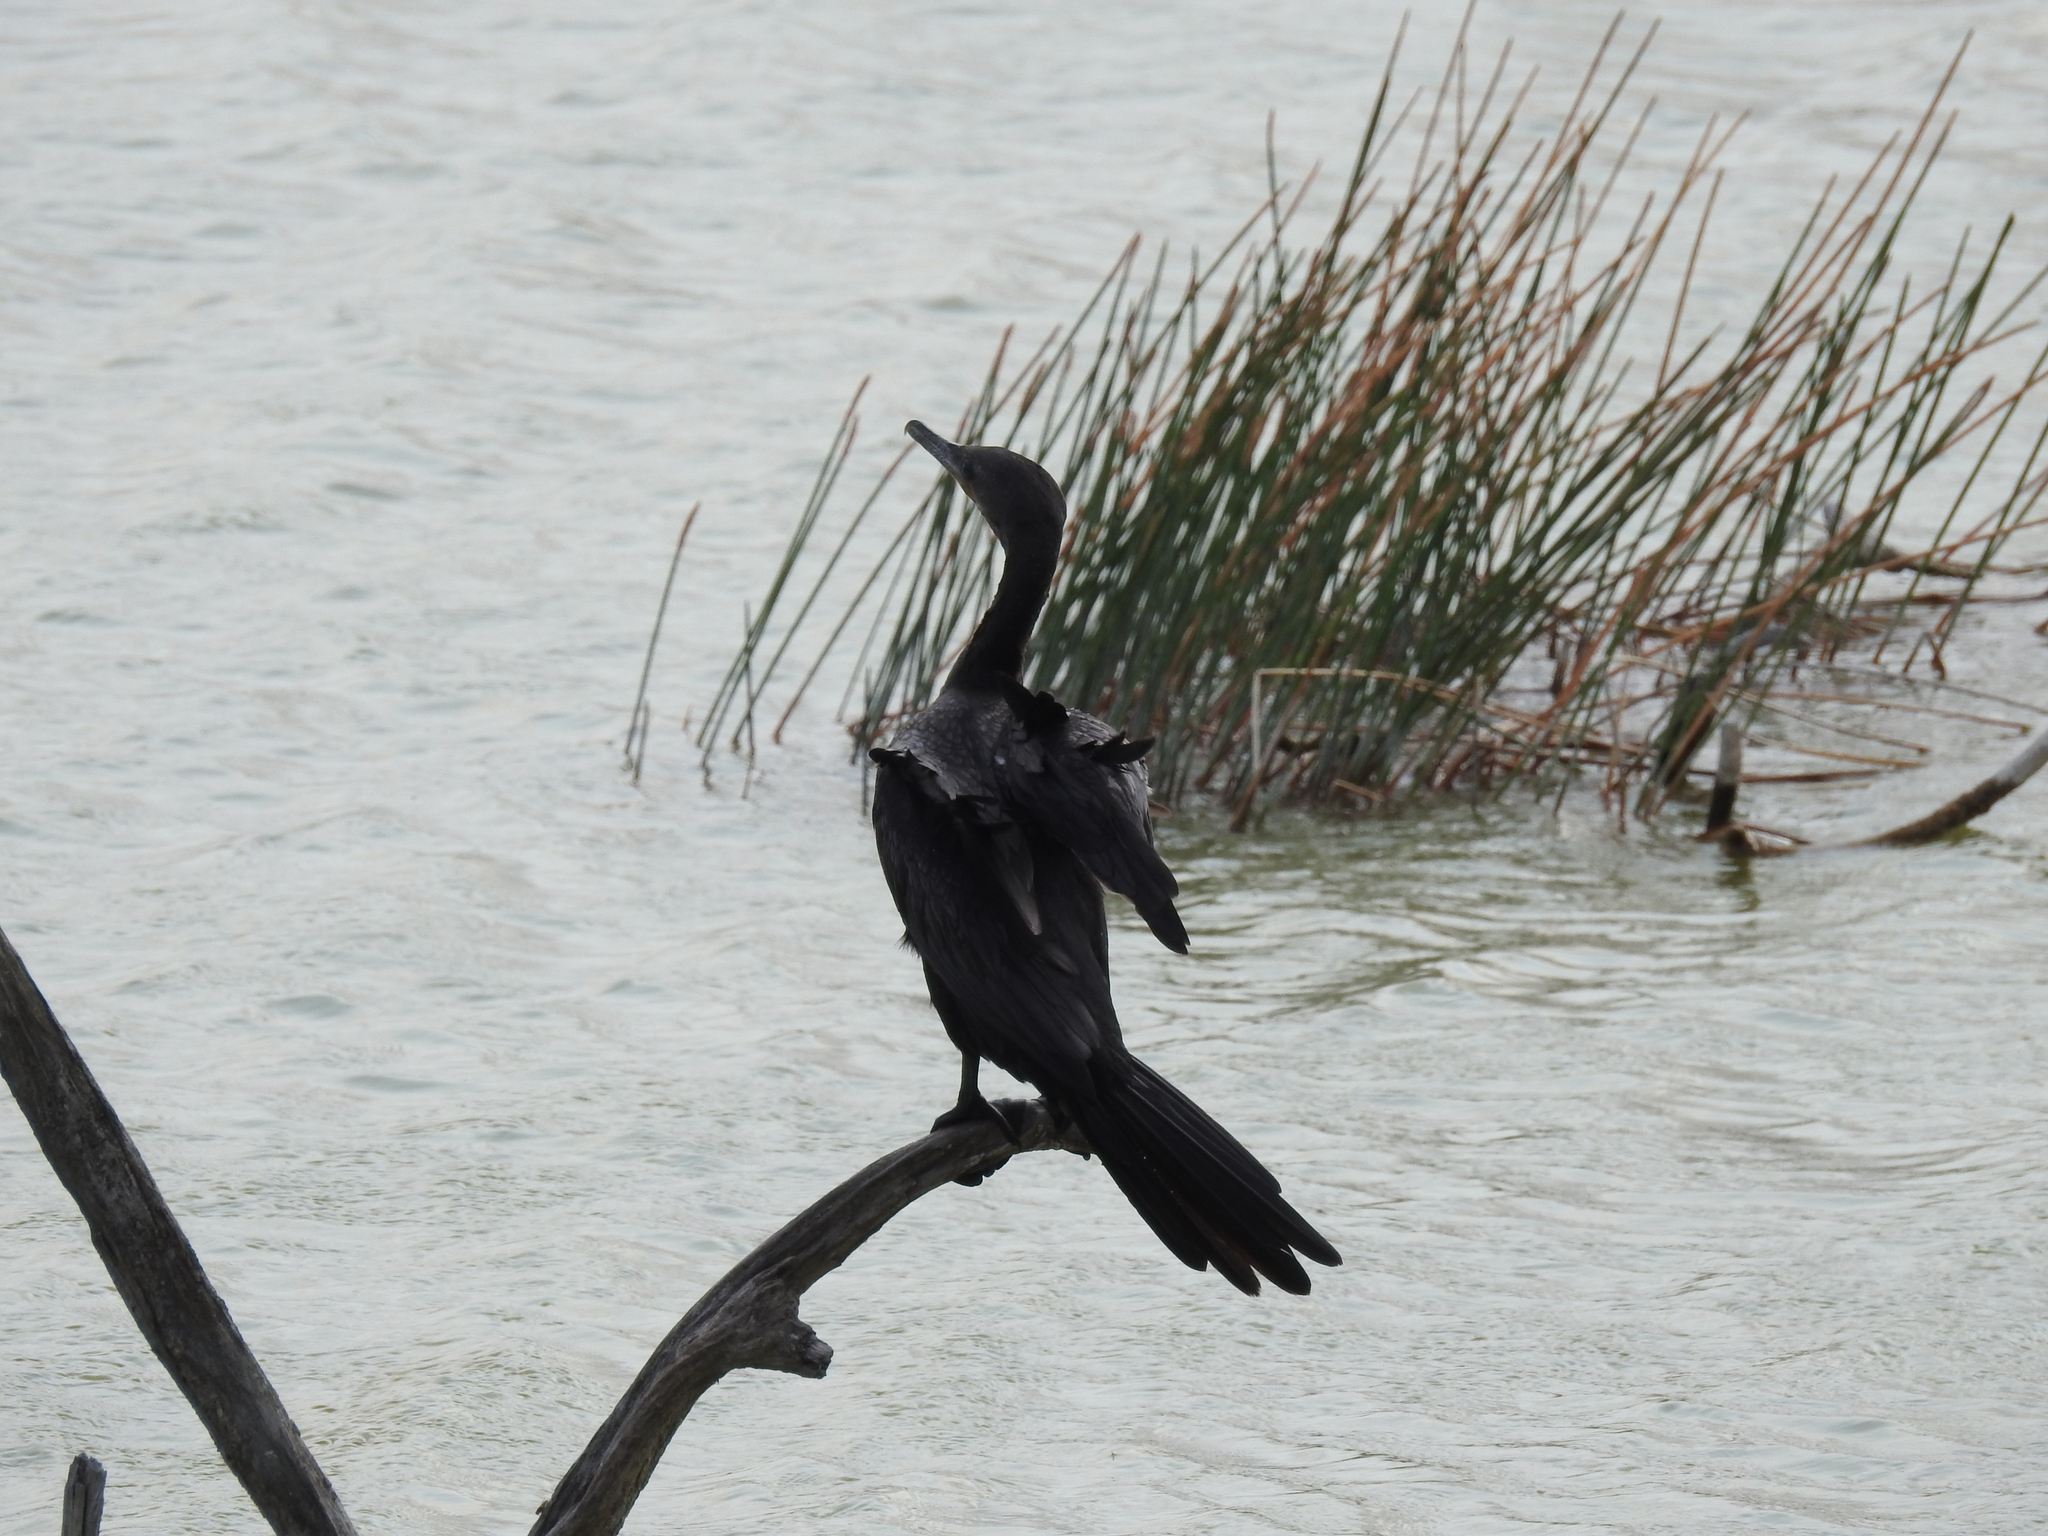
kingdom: Animalia
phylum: Chordata
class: Aves
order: Suliformes
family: Phalacrocoracidae
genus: Phalacrocorax
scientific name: Phalacrocorax brasilianus
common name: Neotropic cormorant
